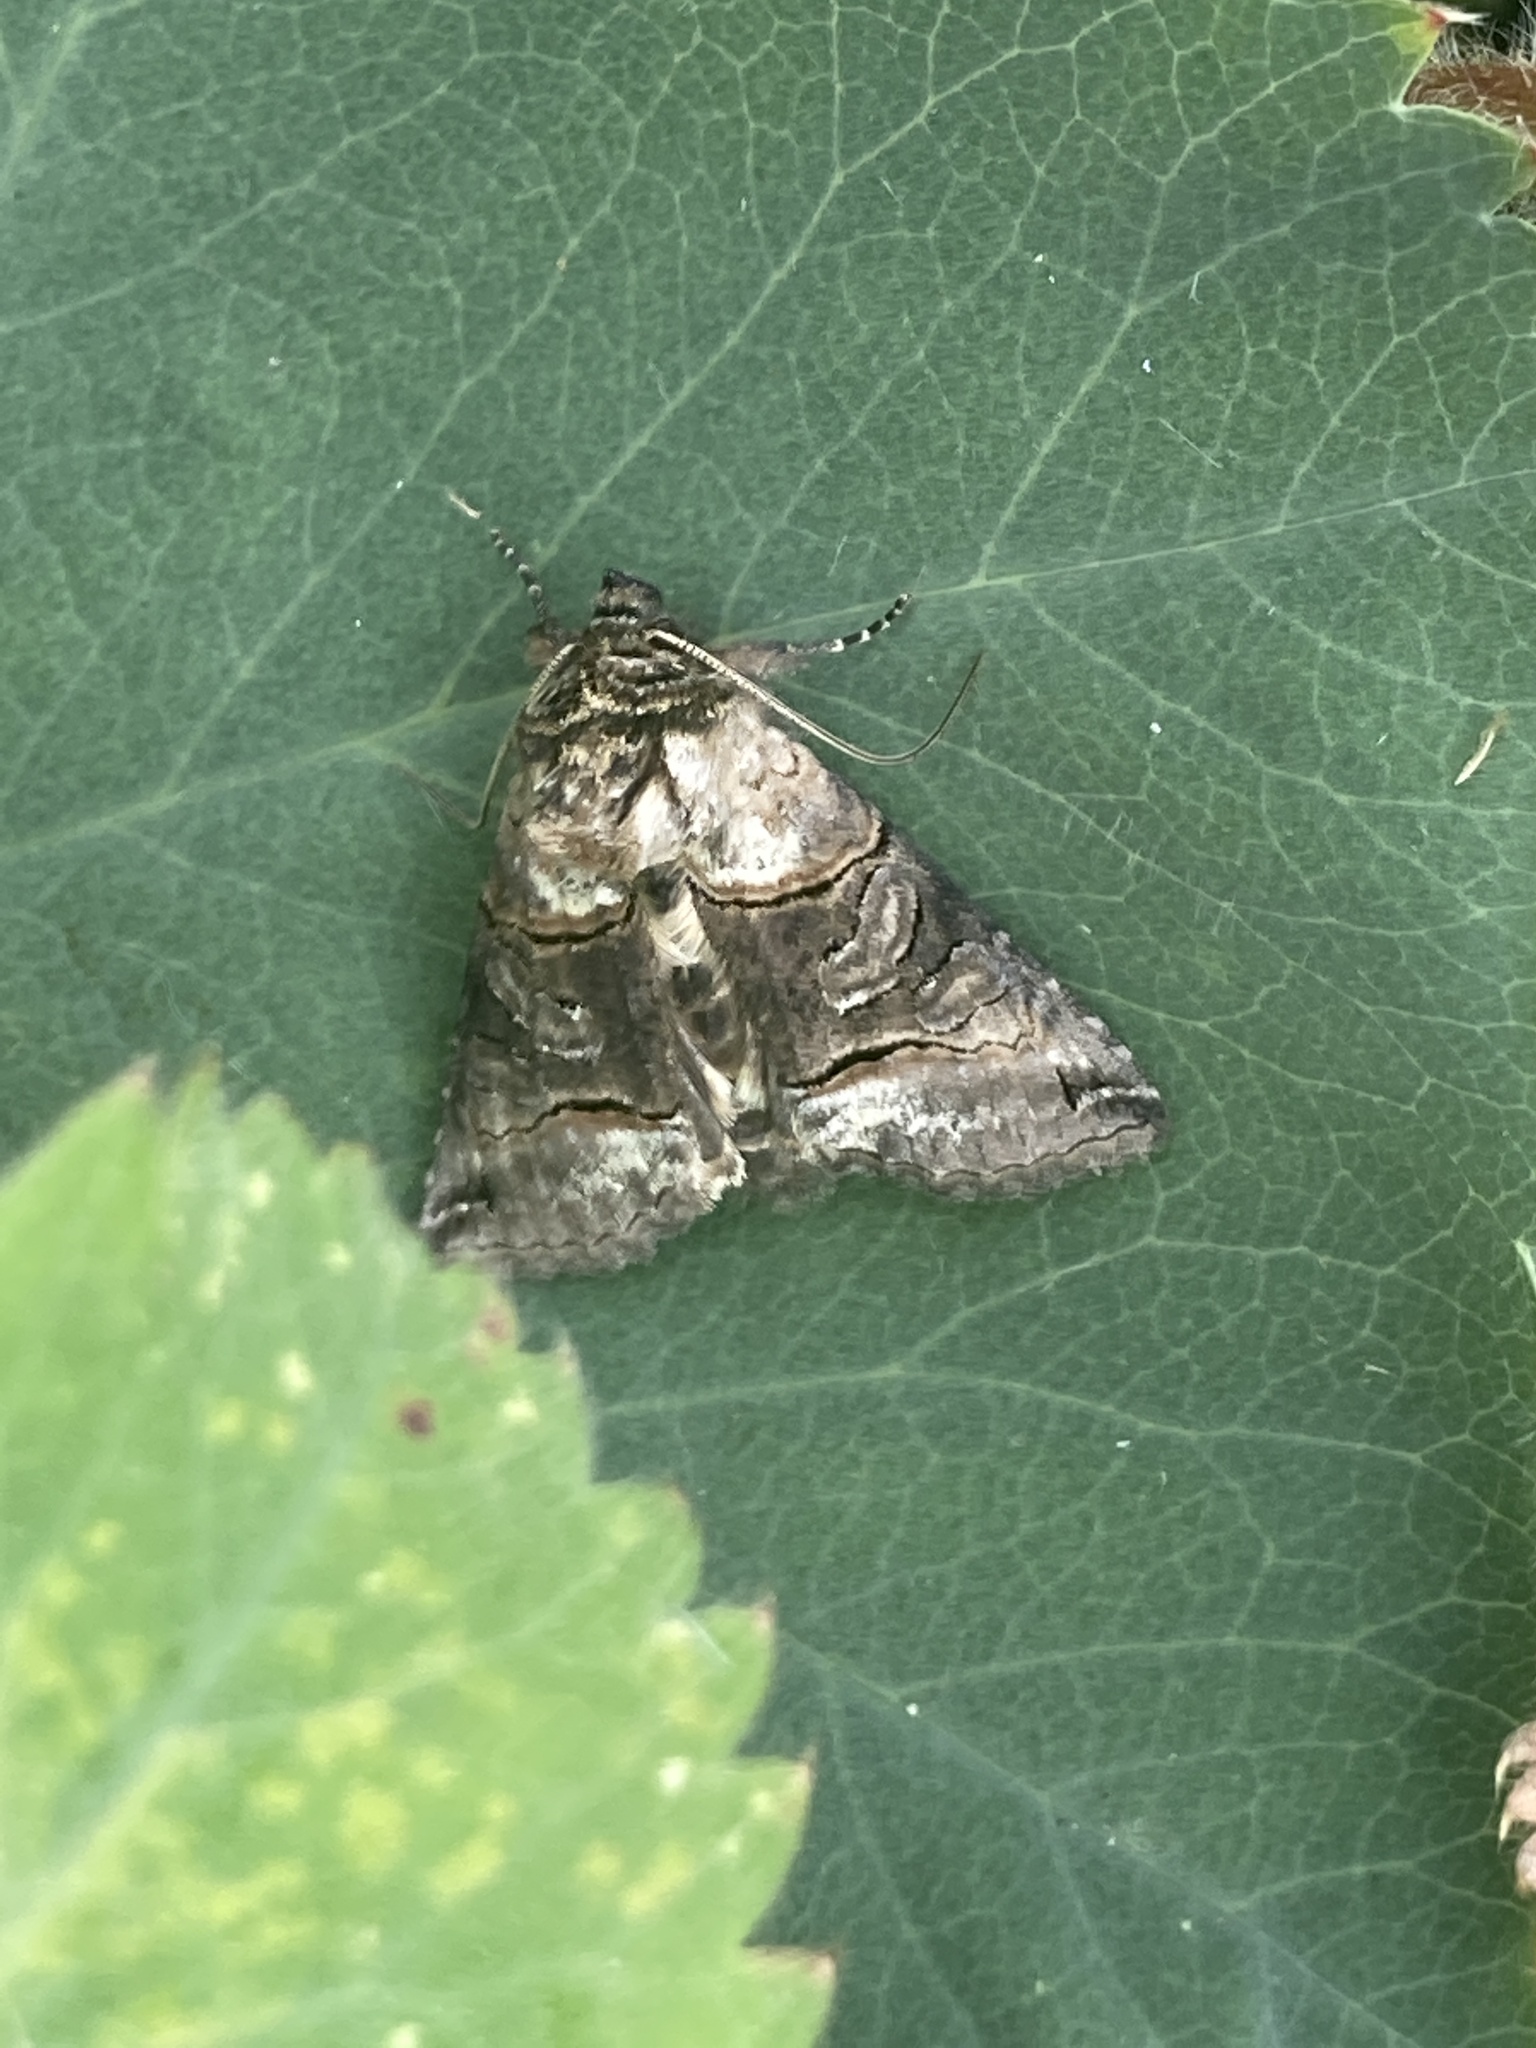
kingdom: Animalia
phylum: Arthropoda
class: Insecta
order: Lepidoptera
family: Noctuidae
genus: Abrostola
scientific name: Abrostola tripartita
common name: Spectacle
